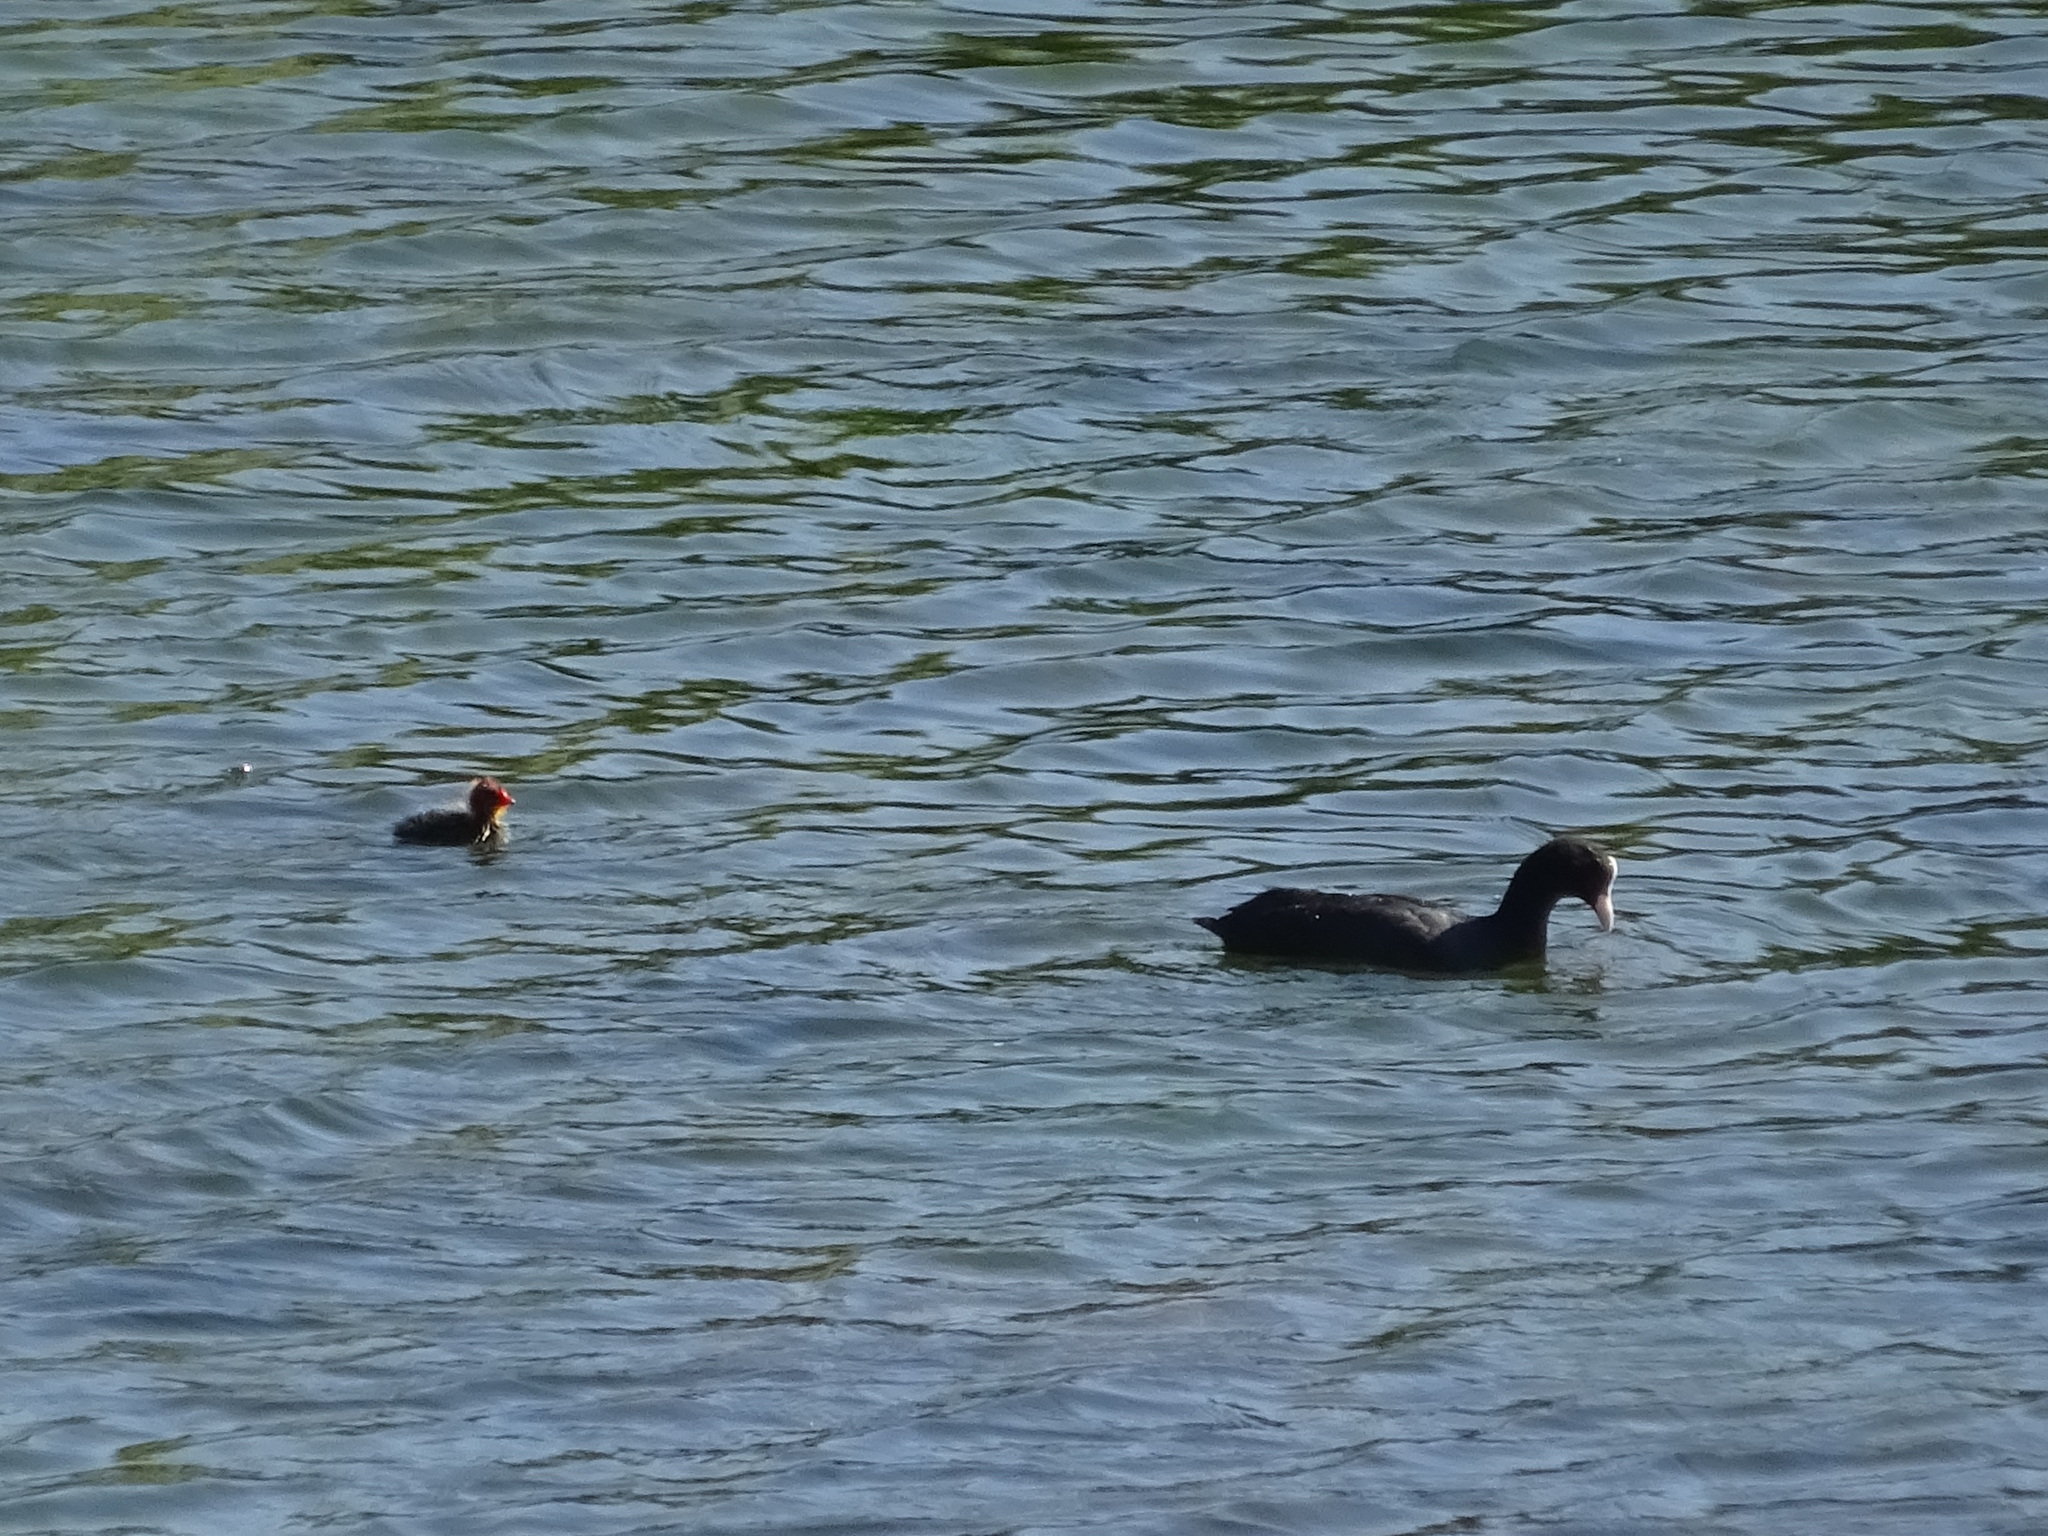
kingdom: Animalia
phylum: Chordata
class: Aves
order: Gruiformes
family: Rallidae
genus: Fulica
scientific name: Fulica atra
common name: Eurasian coot
